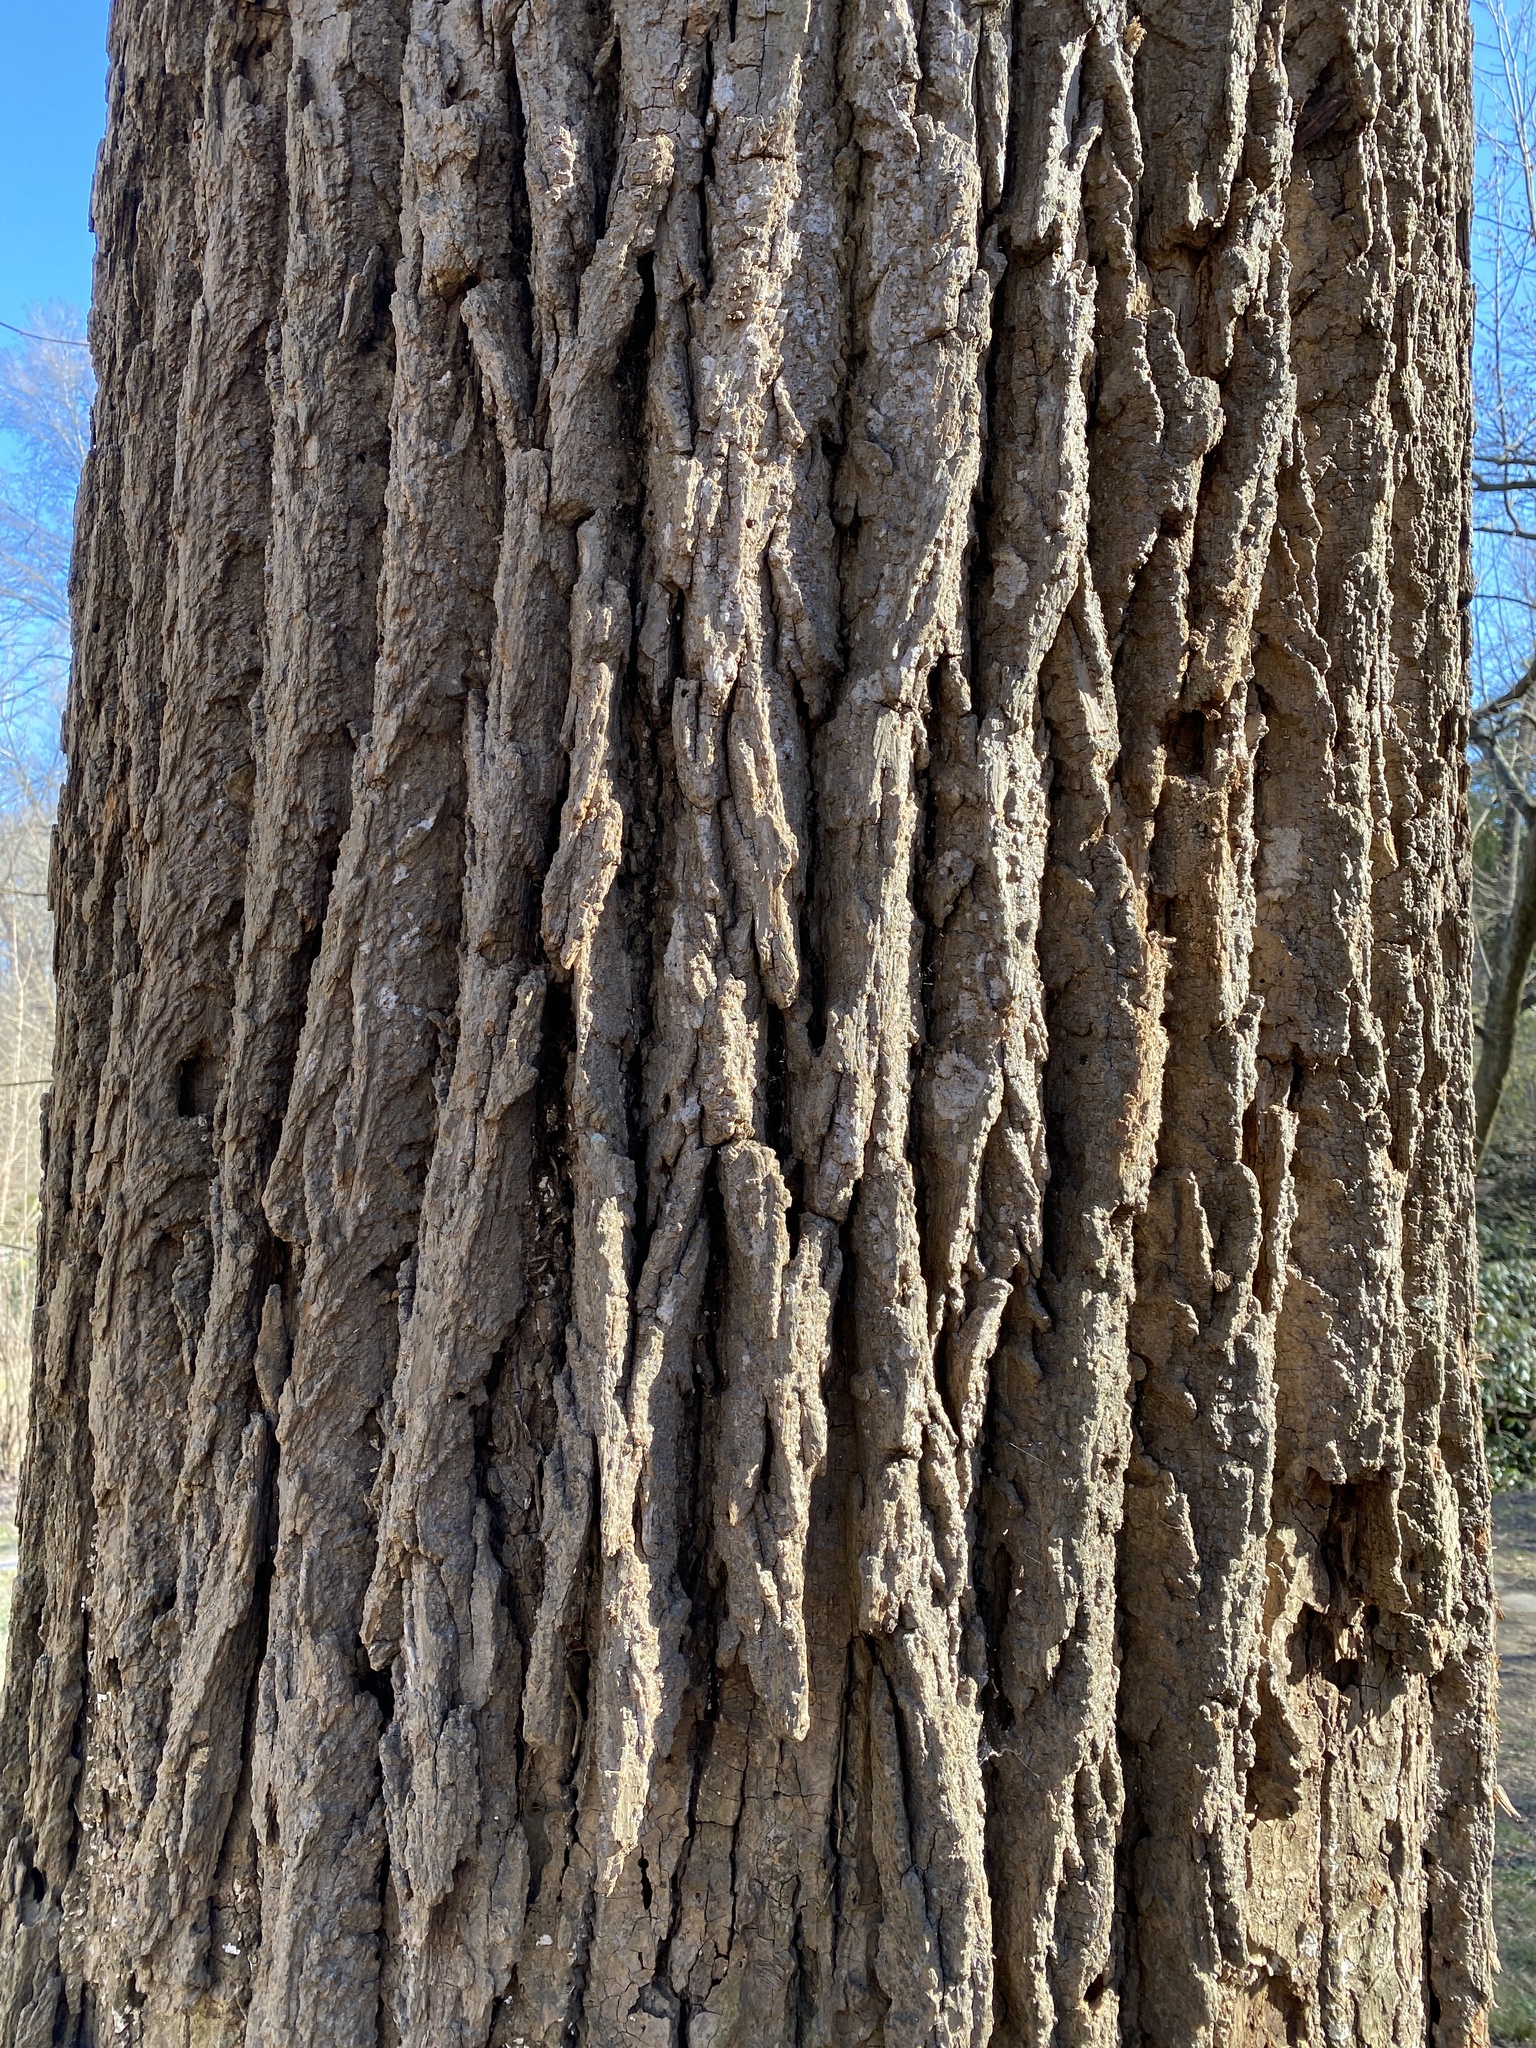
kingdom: Plantae
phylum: Tracheophyta
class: Magnoliopsida
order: Magnoliales
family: Magnoliaceae
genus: Liriodendron
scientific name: Liriodendron tulipifera
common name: Tulip tree
